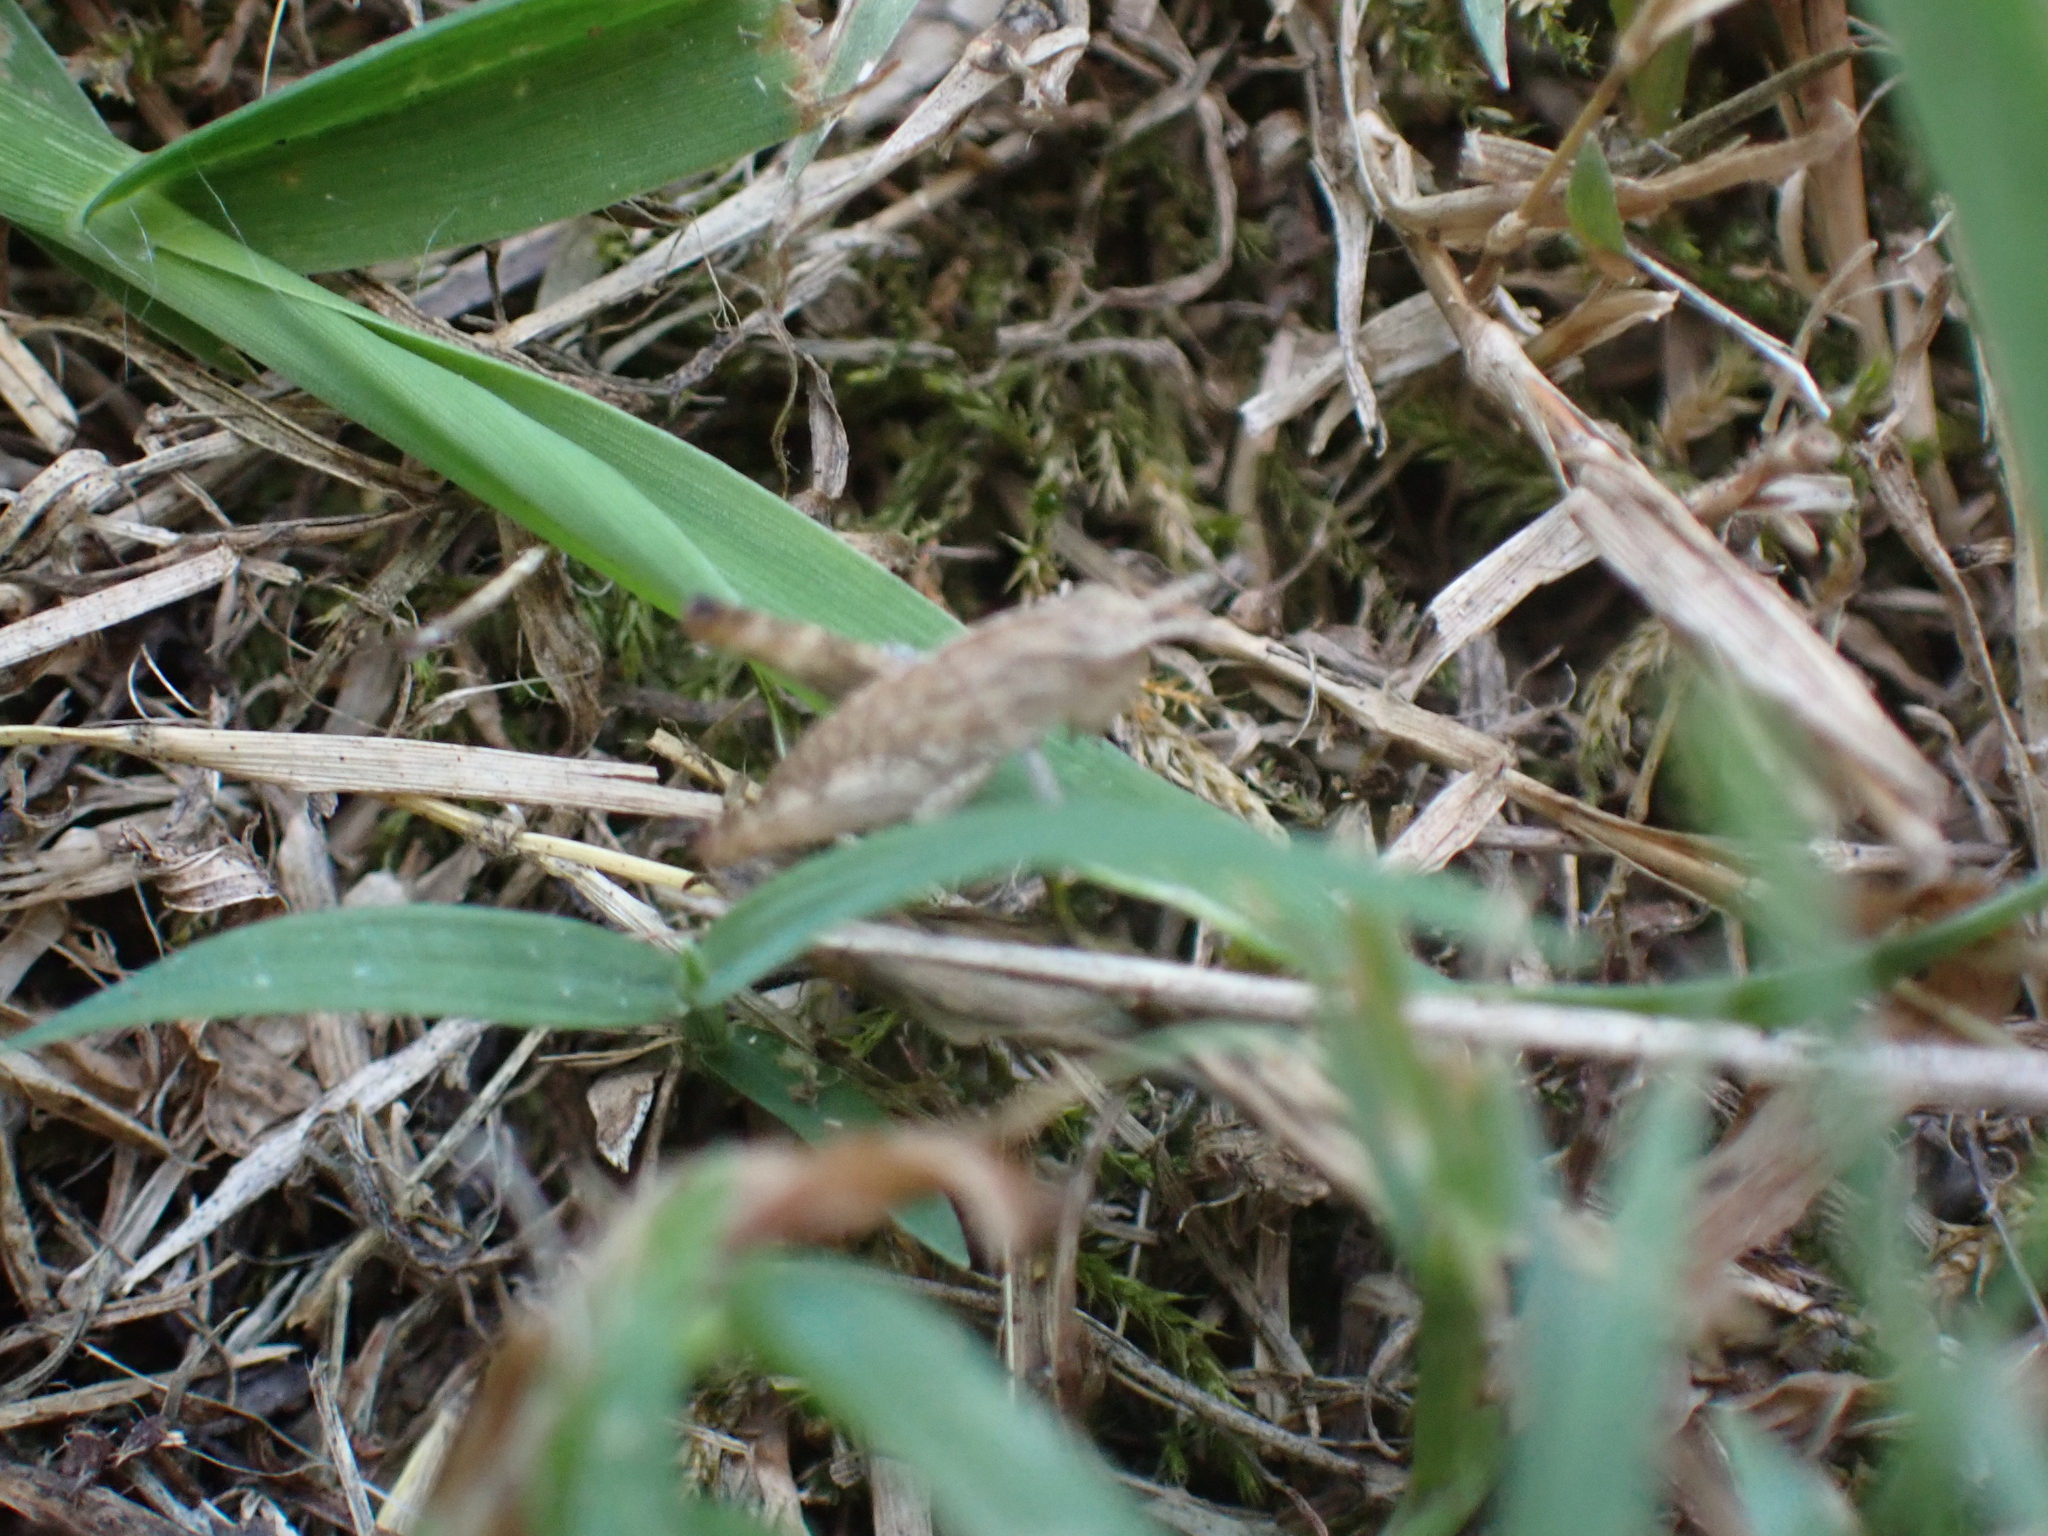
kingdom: Animalia
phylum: Arthropoda
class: Insecta
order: Orthoptera
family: Acrididae
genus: Chortophaga
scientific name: Chortophaga viridifasciata
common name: Green-striped grasshopper
